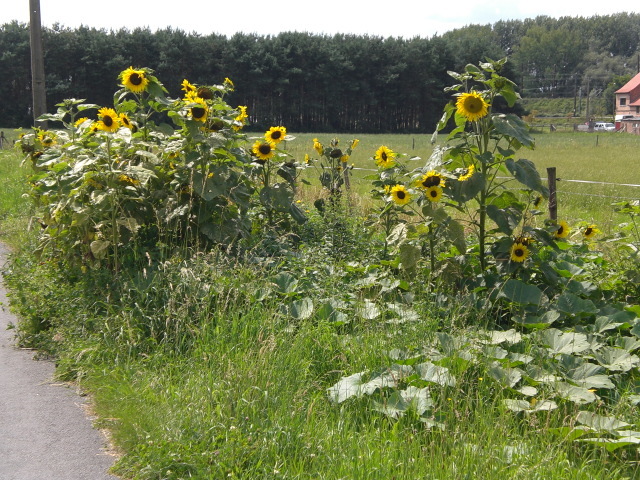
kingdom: Plantae
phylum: Tracheophyta
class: Magnoliopsida
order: Asterales
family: Asteraceae
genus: Helianthus
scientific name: Helianthus annuus
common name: Sunflower
